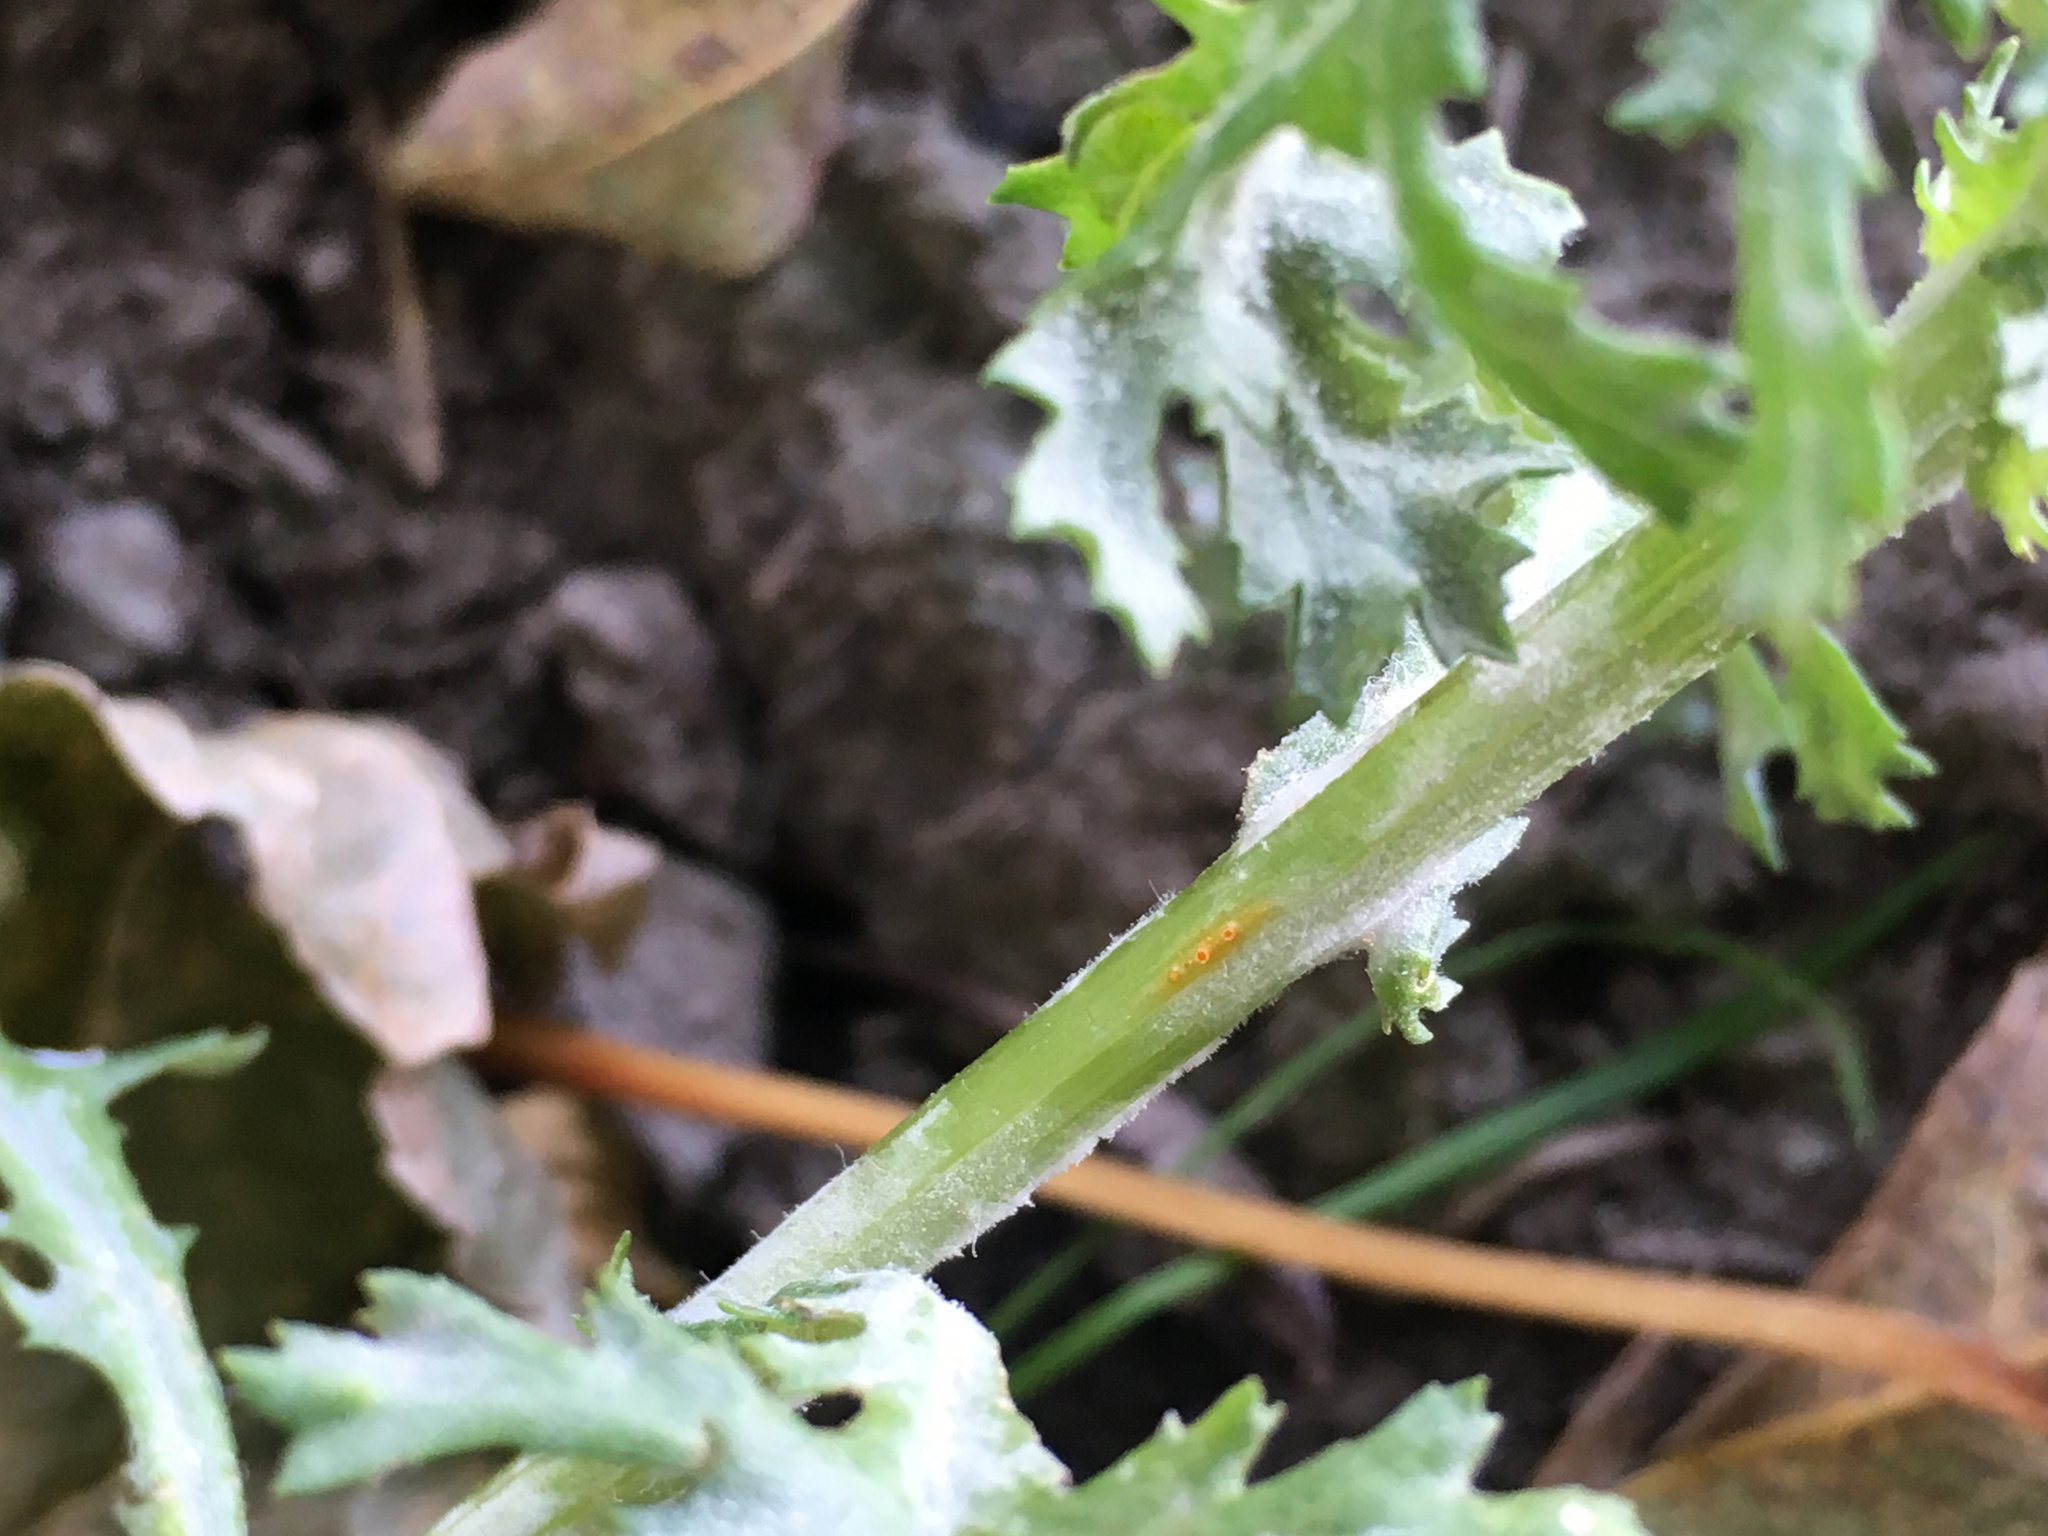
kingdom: Fungi
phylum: Basidiomycota
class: Pucciniomycetes
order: Pucciniales
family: Pucciniaceae
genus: Puccinia
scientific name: Puccinia lagenophorae
